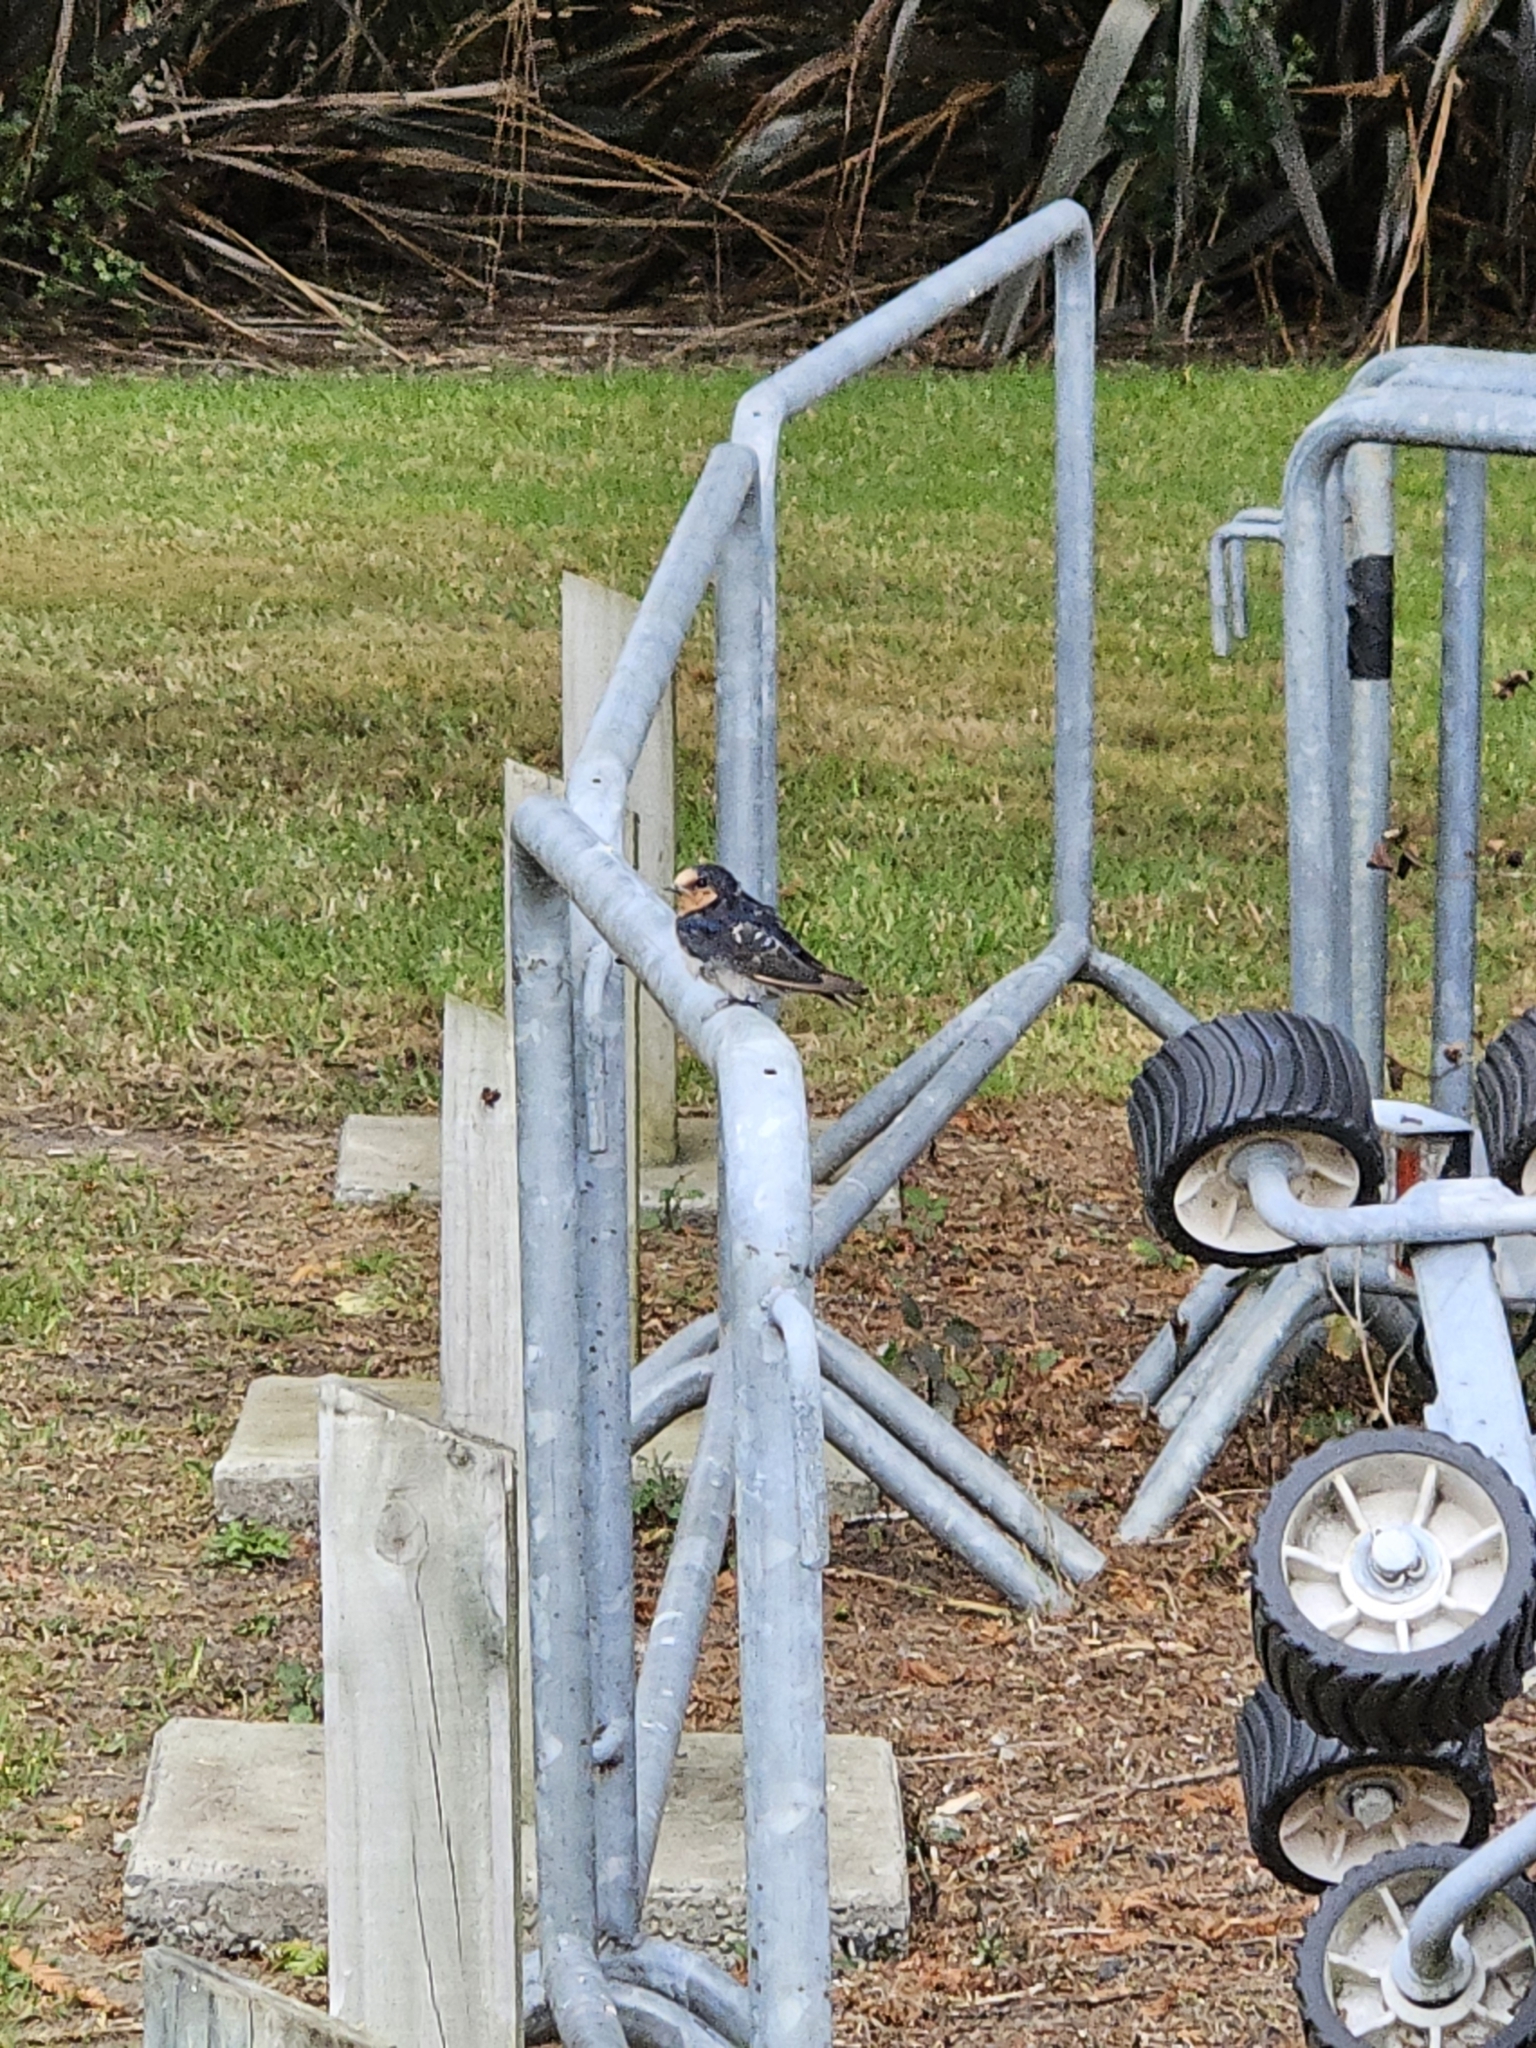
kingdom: Animalia
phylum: Chordata
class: Aves
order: Passeriformes
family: Hirundinidae
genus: Hirundo
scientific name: Hirundo neoxena
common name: Welcome swallow
